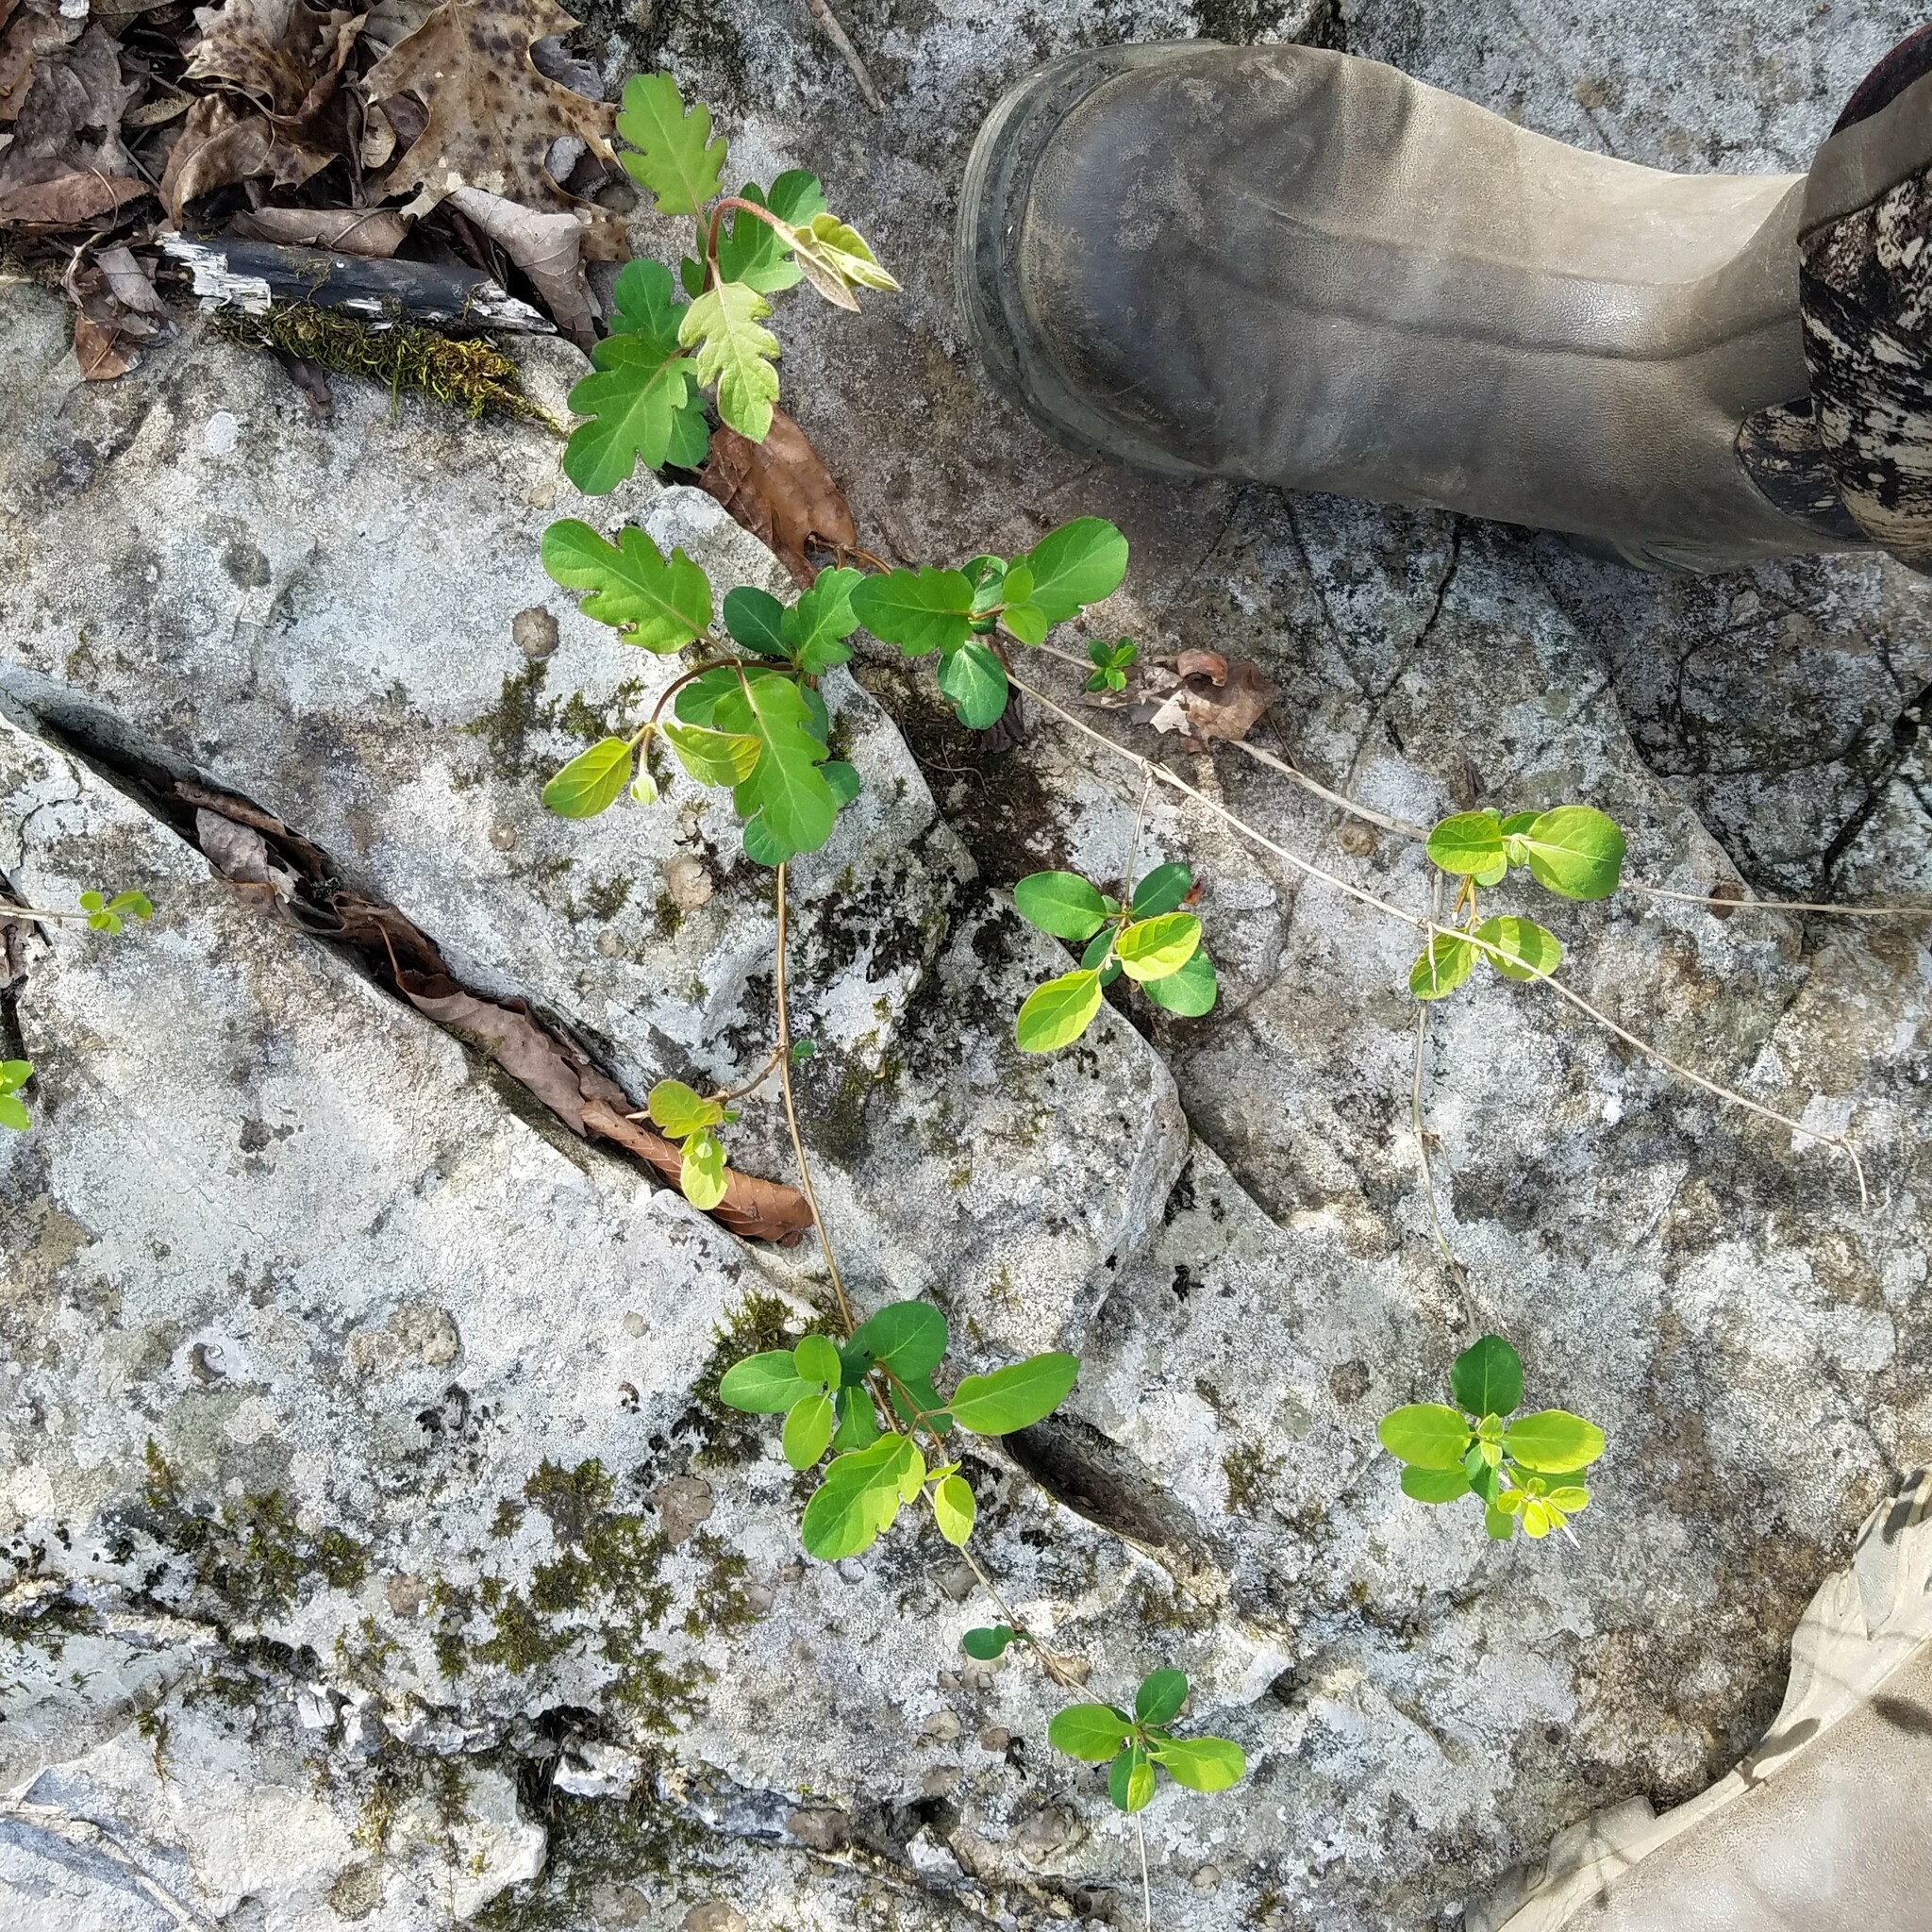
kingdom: Plantae
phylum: Tracheophyta
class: Magnoliopsida
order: Dipsacales
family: Caprifoliaceae
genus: Lonicera
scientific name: Lonicera japonica
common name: Japanese honeysuckle
